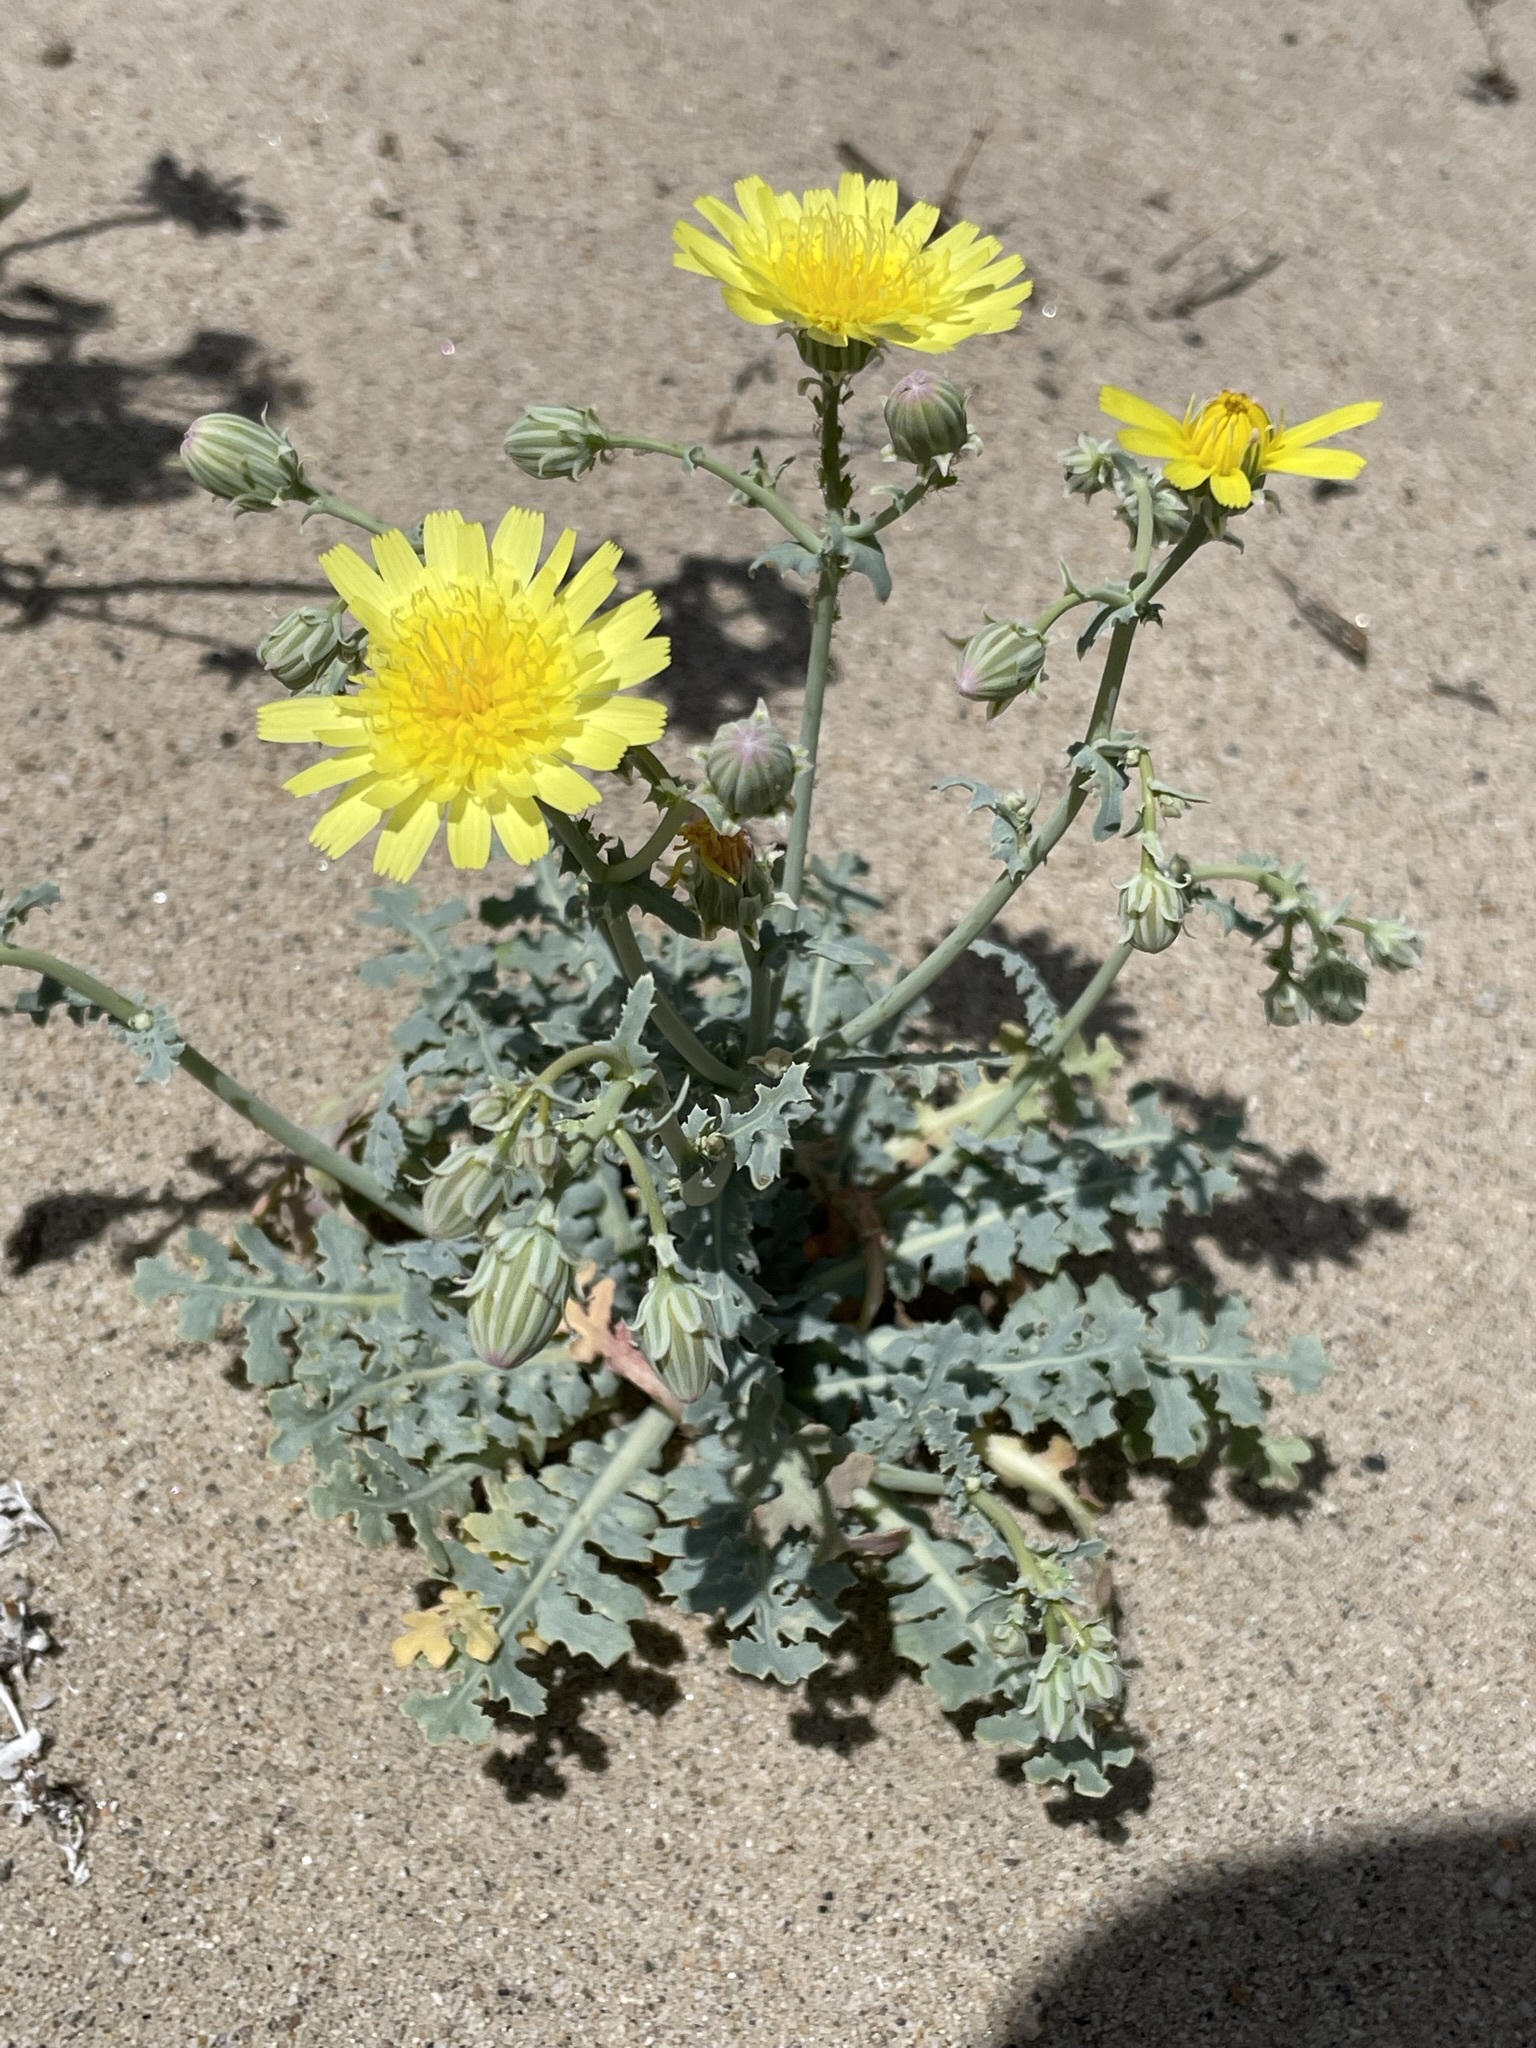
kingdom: Plantae
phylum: Tracheophyta
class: Magnoliopsida
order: Asterales
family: Asteraceae
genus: Malacothrix
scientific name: Malacothrix sonchoides
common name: Sow-thistle desert-dandelion
